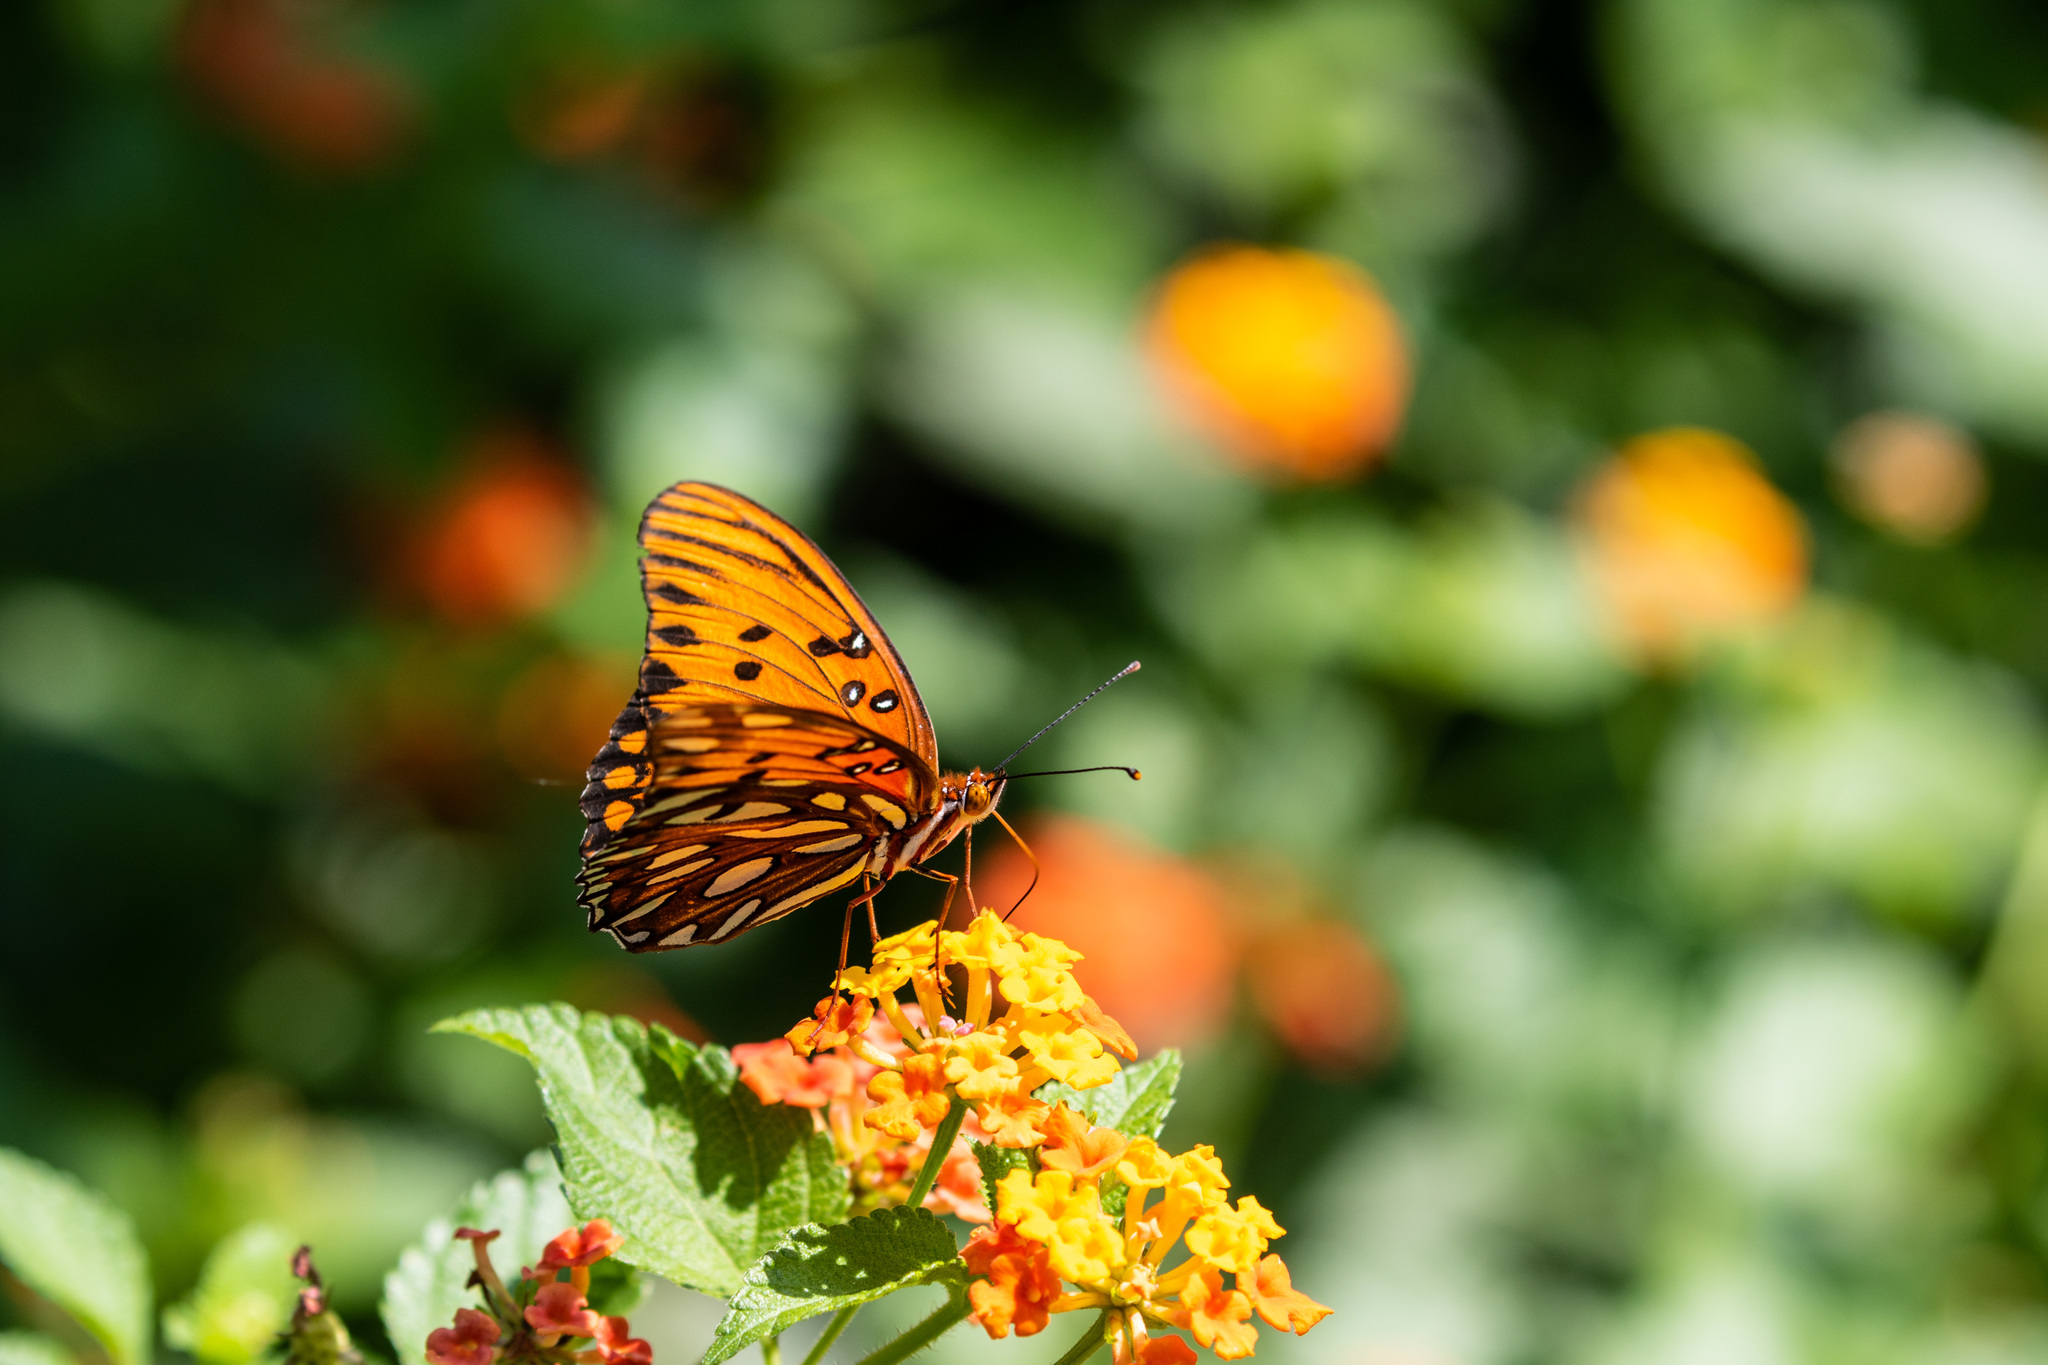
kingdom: Animalia
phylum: Arthropoda
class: Insecta
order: Lepidoptera
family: Nymphalidae
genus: Dione
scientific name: Dione vanillae
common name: Gulf fritillary
